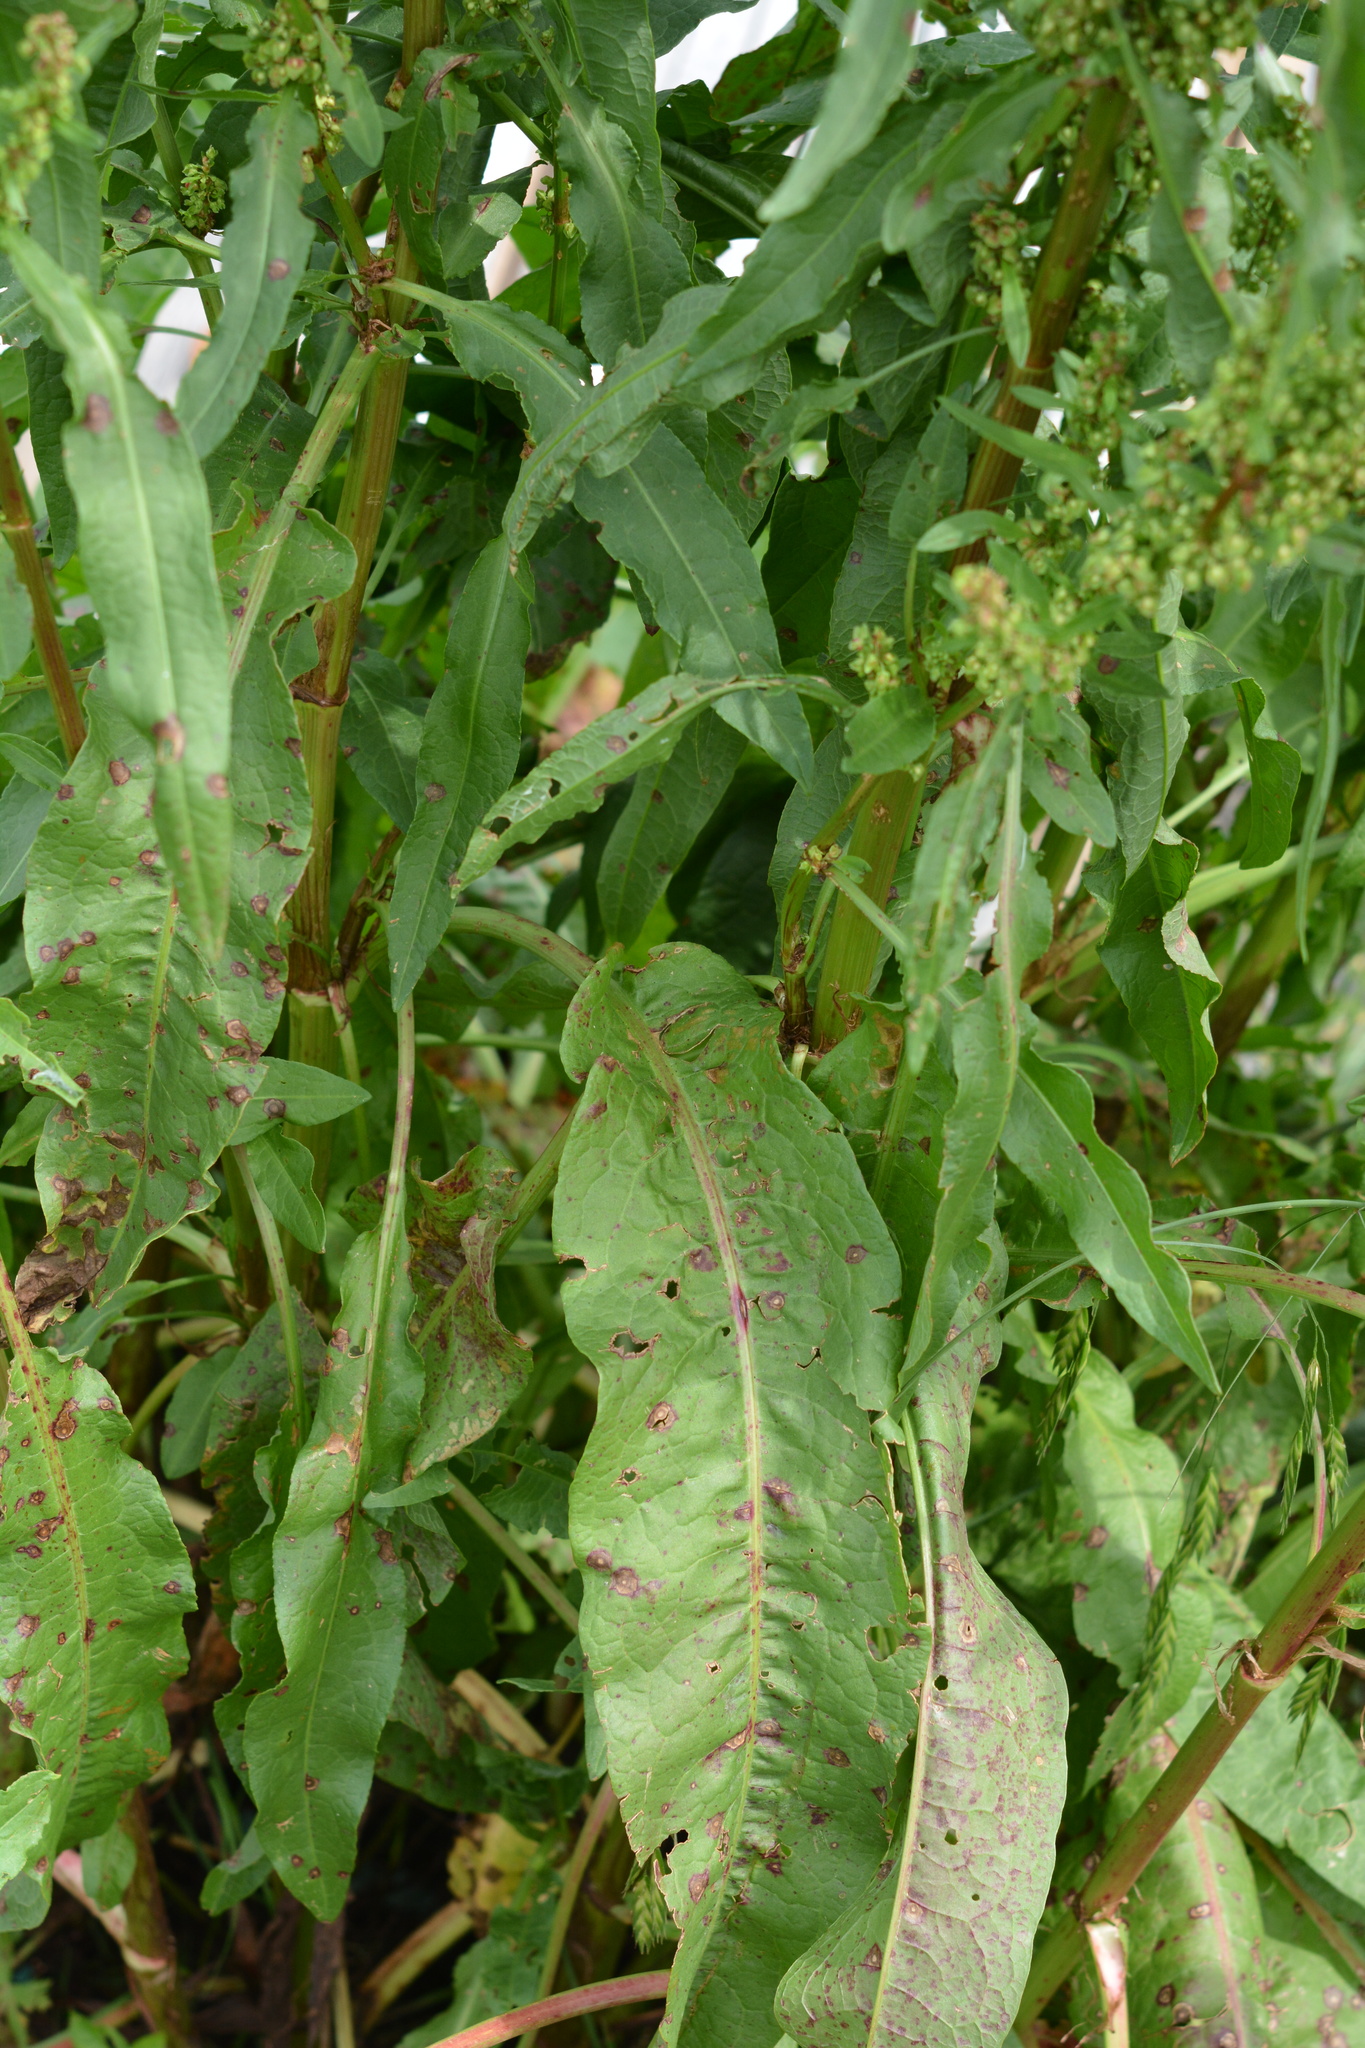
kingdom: Plantae
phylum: Tracheophyta
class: Magnoliopsida
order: Caryophyllales
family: Polygonaceae
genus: Rumex
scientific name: Rumex crispus
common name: Curled dock
